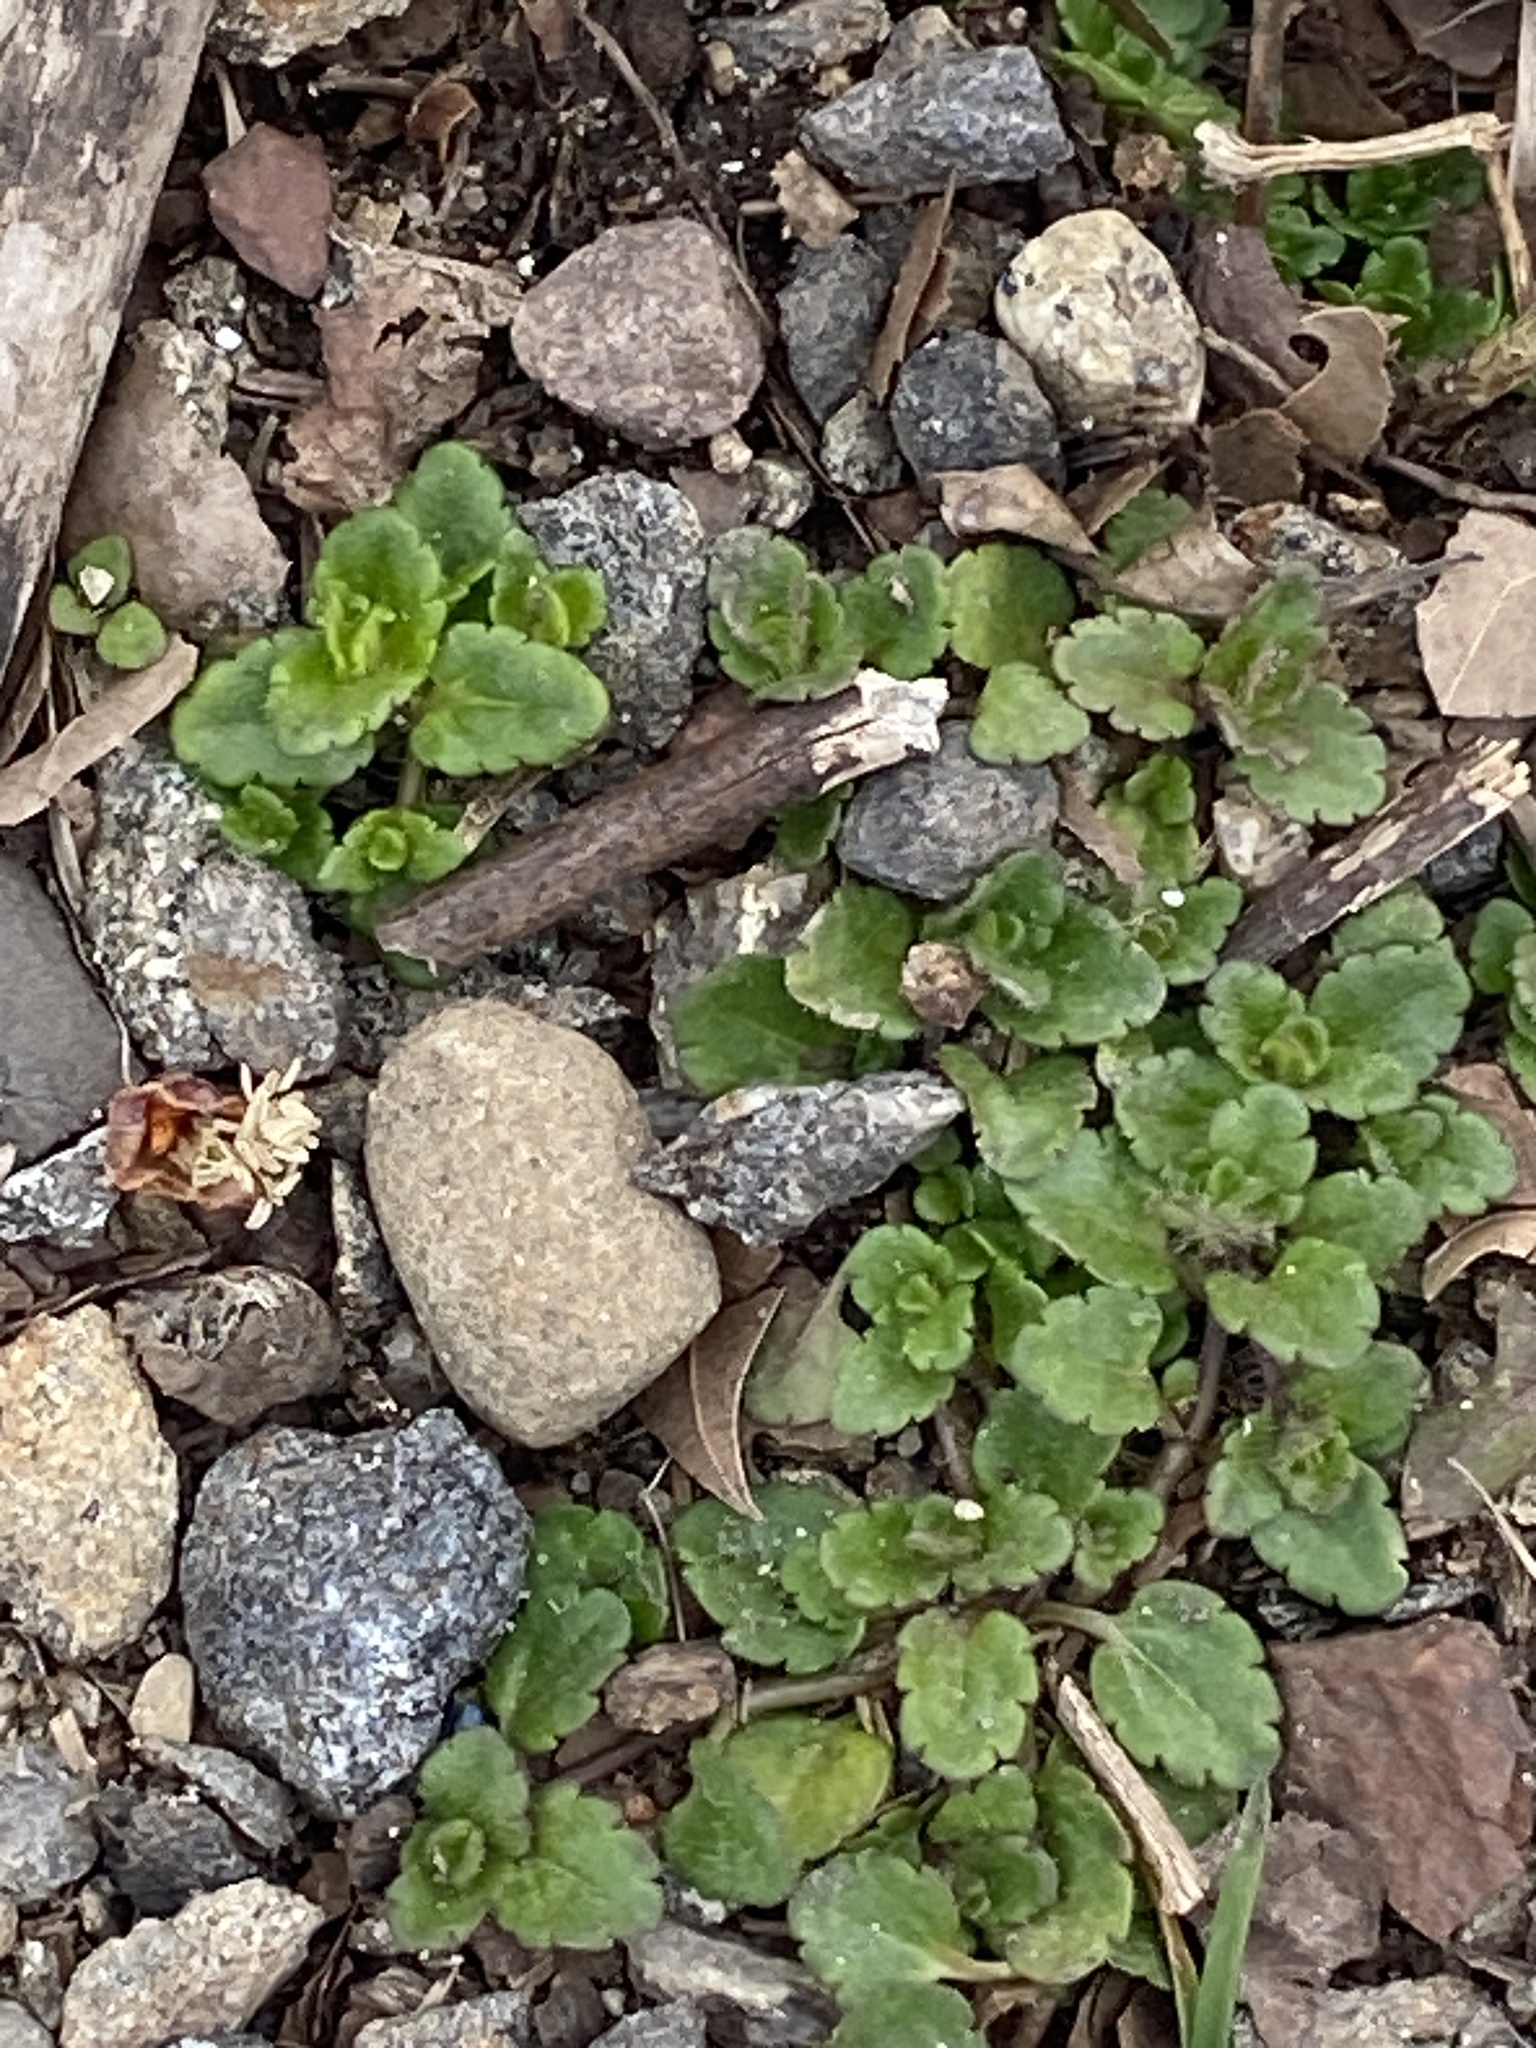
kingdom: Plantae
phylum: Tracheophyta
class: Magnoliopsida
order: Lamiales
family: Plantaginaceae
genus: Veronica
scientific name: Veronica persica
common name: Common field-speedwell
